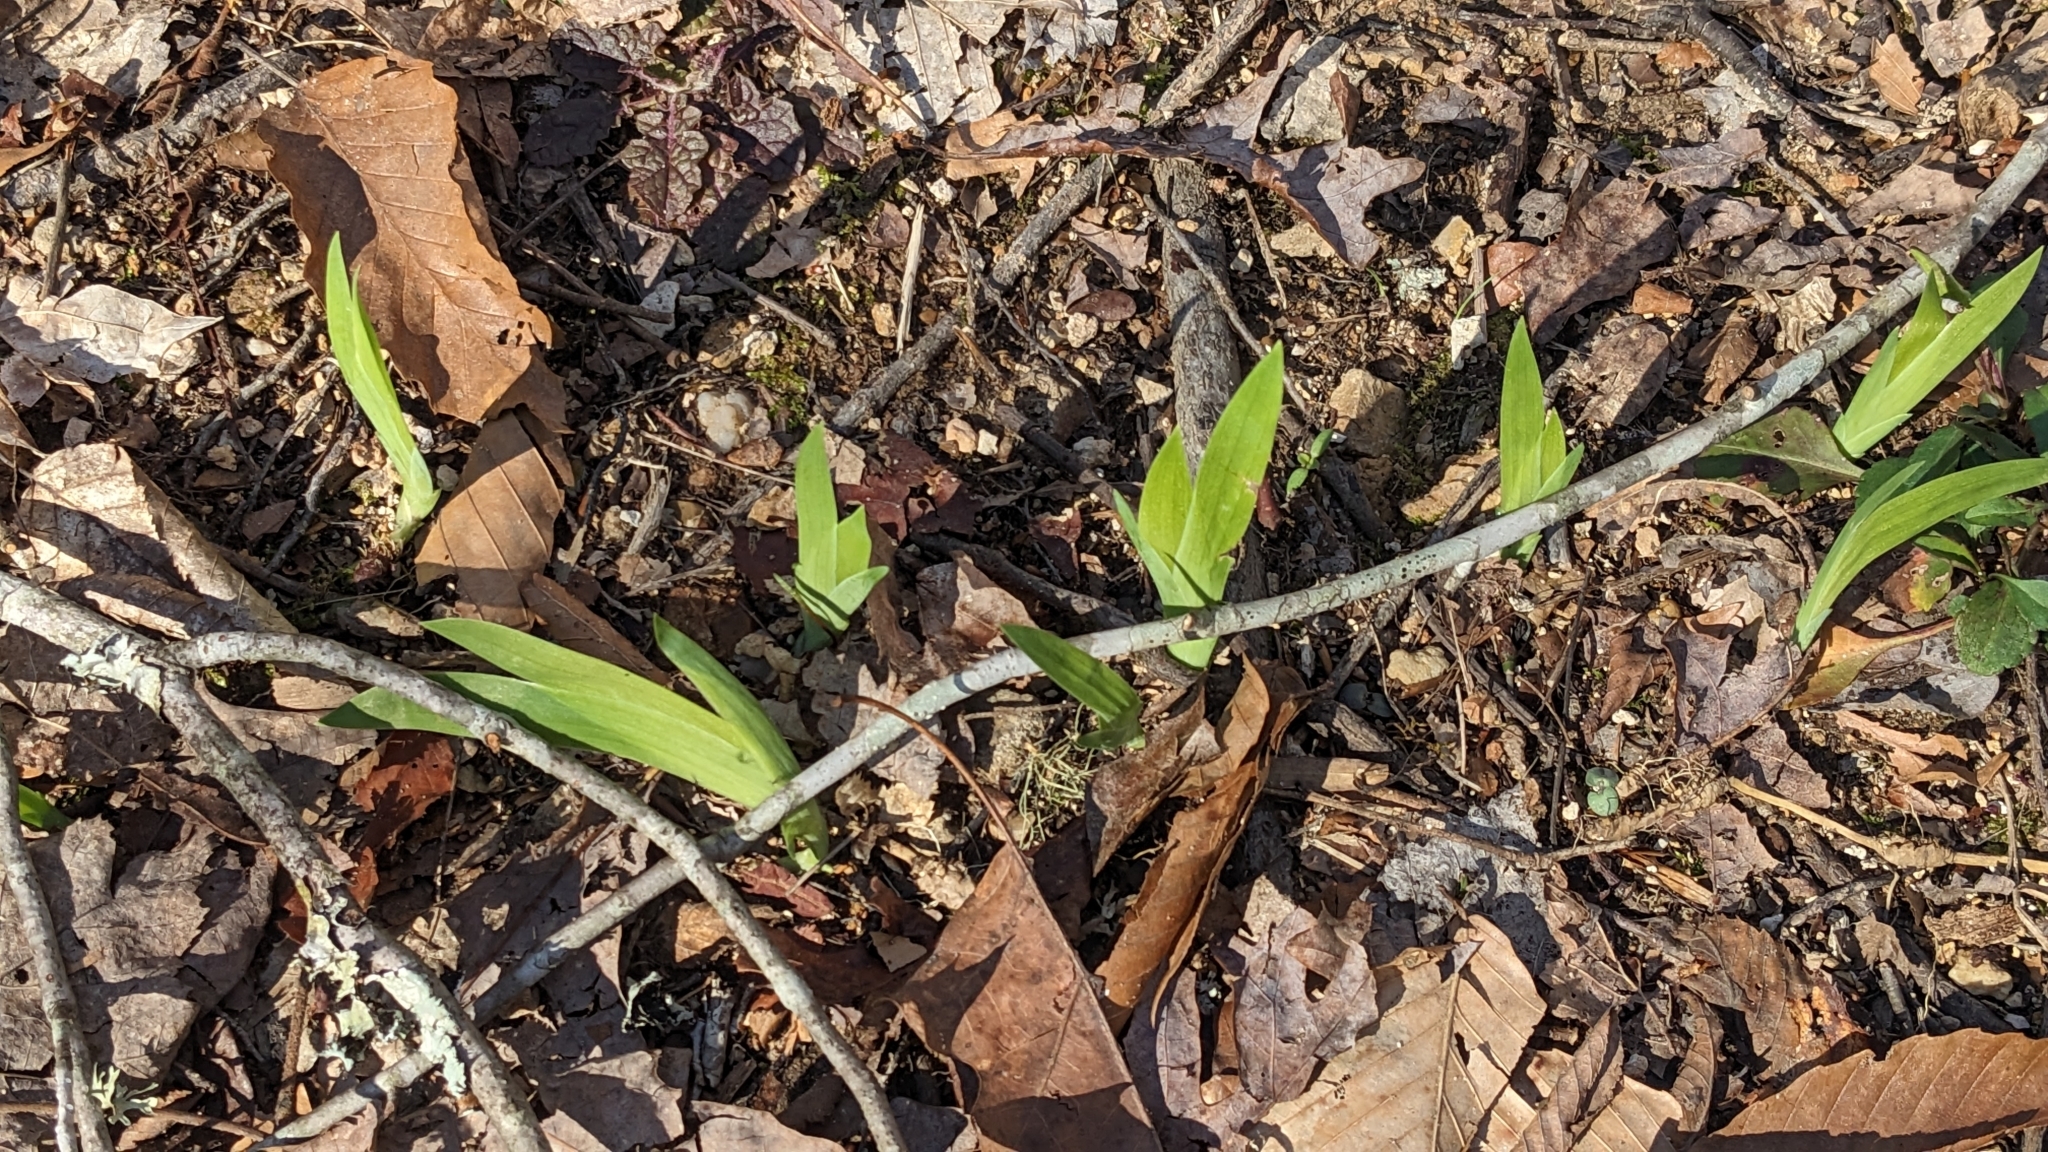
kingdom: Plantae
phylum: Tracheophyta
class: Liliopsida
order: Asparagales
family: Iridaceae
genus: Iris
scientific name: Iris cristata
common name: Crested iris
